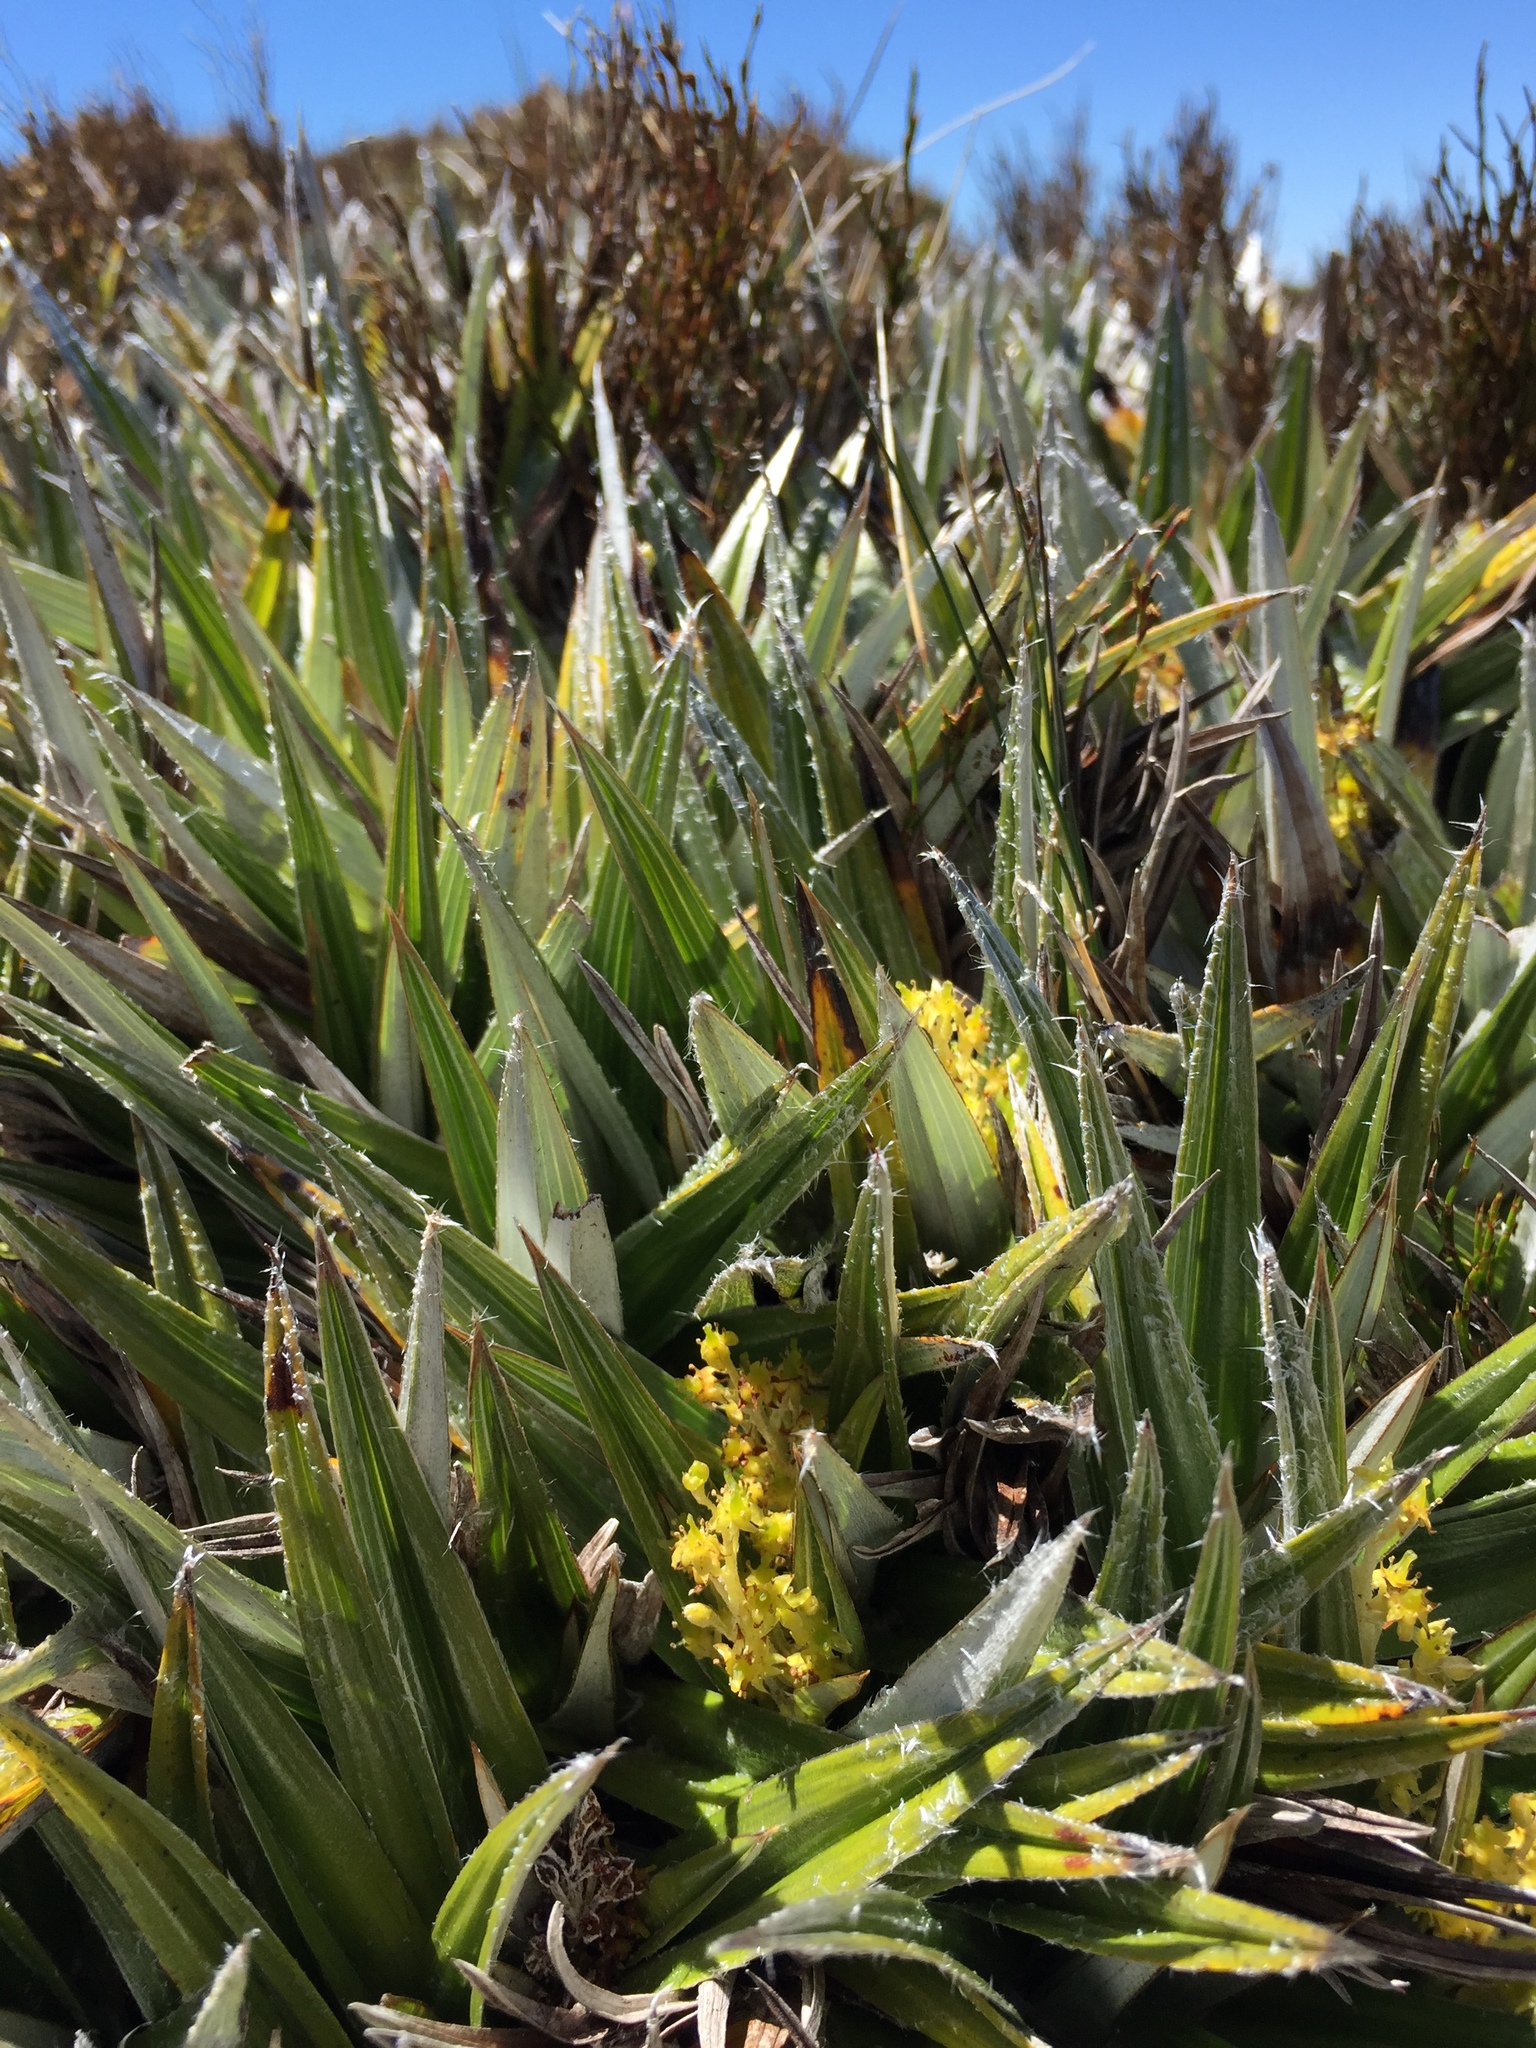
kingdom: Plantae
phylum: Tracheophyta
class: Liliopsida
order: Asparagales
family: Asteliaceae
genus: Astelia
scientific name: Astelia alpina
